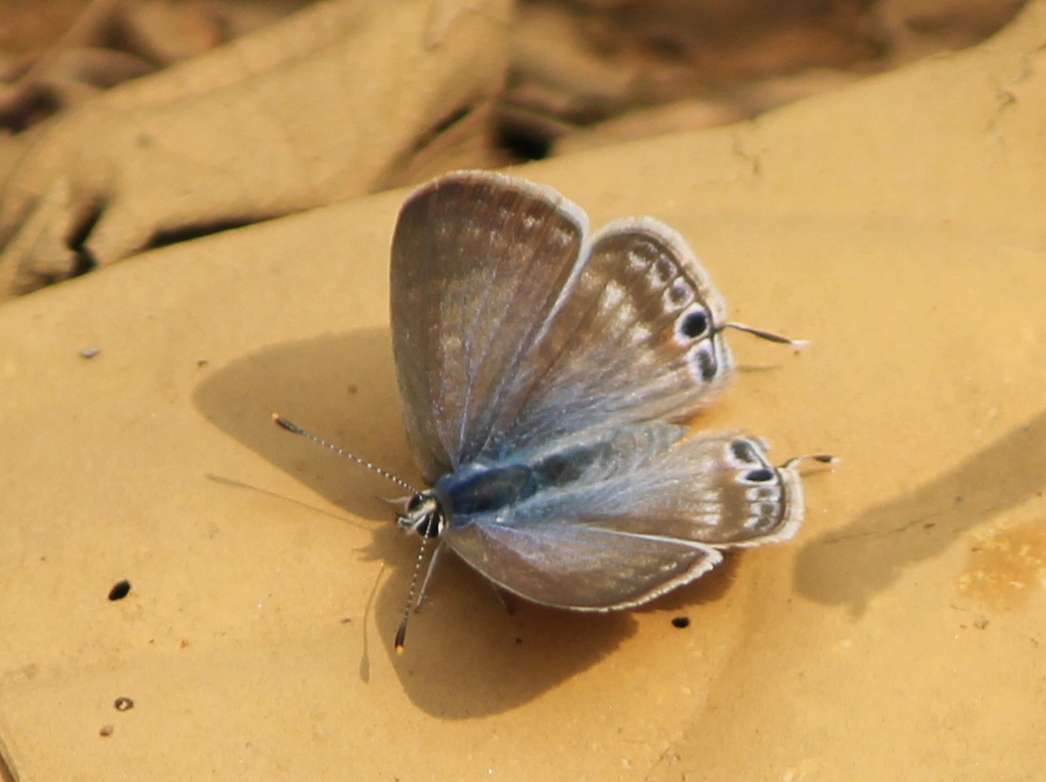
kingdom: Animalia
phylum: Arthropoda
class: Insecta
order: Lepidoptera
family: Lycaenidae
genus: Lampides
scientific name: Lampides boeticus
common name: Long-tailed blue
